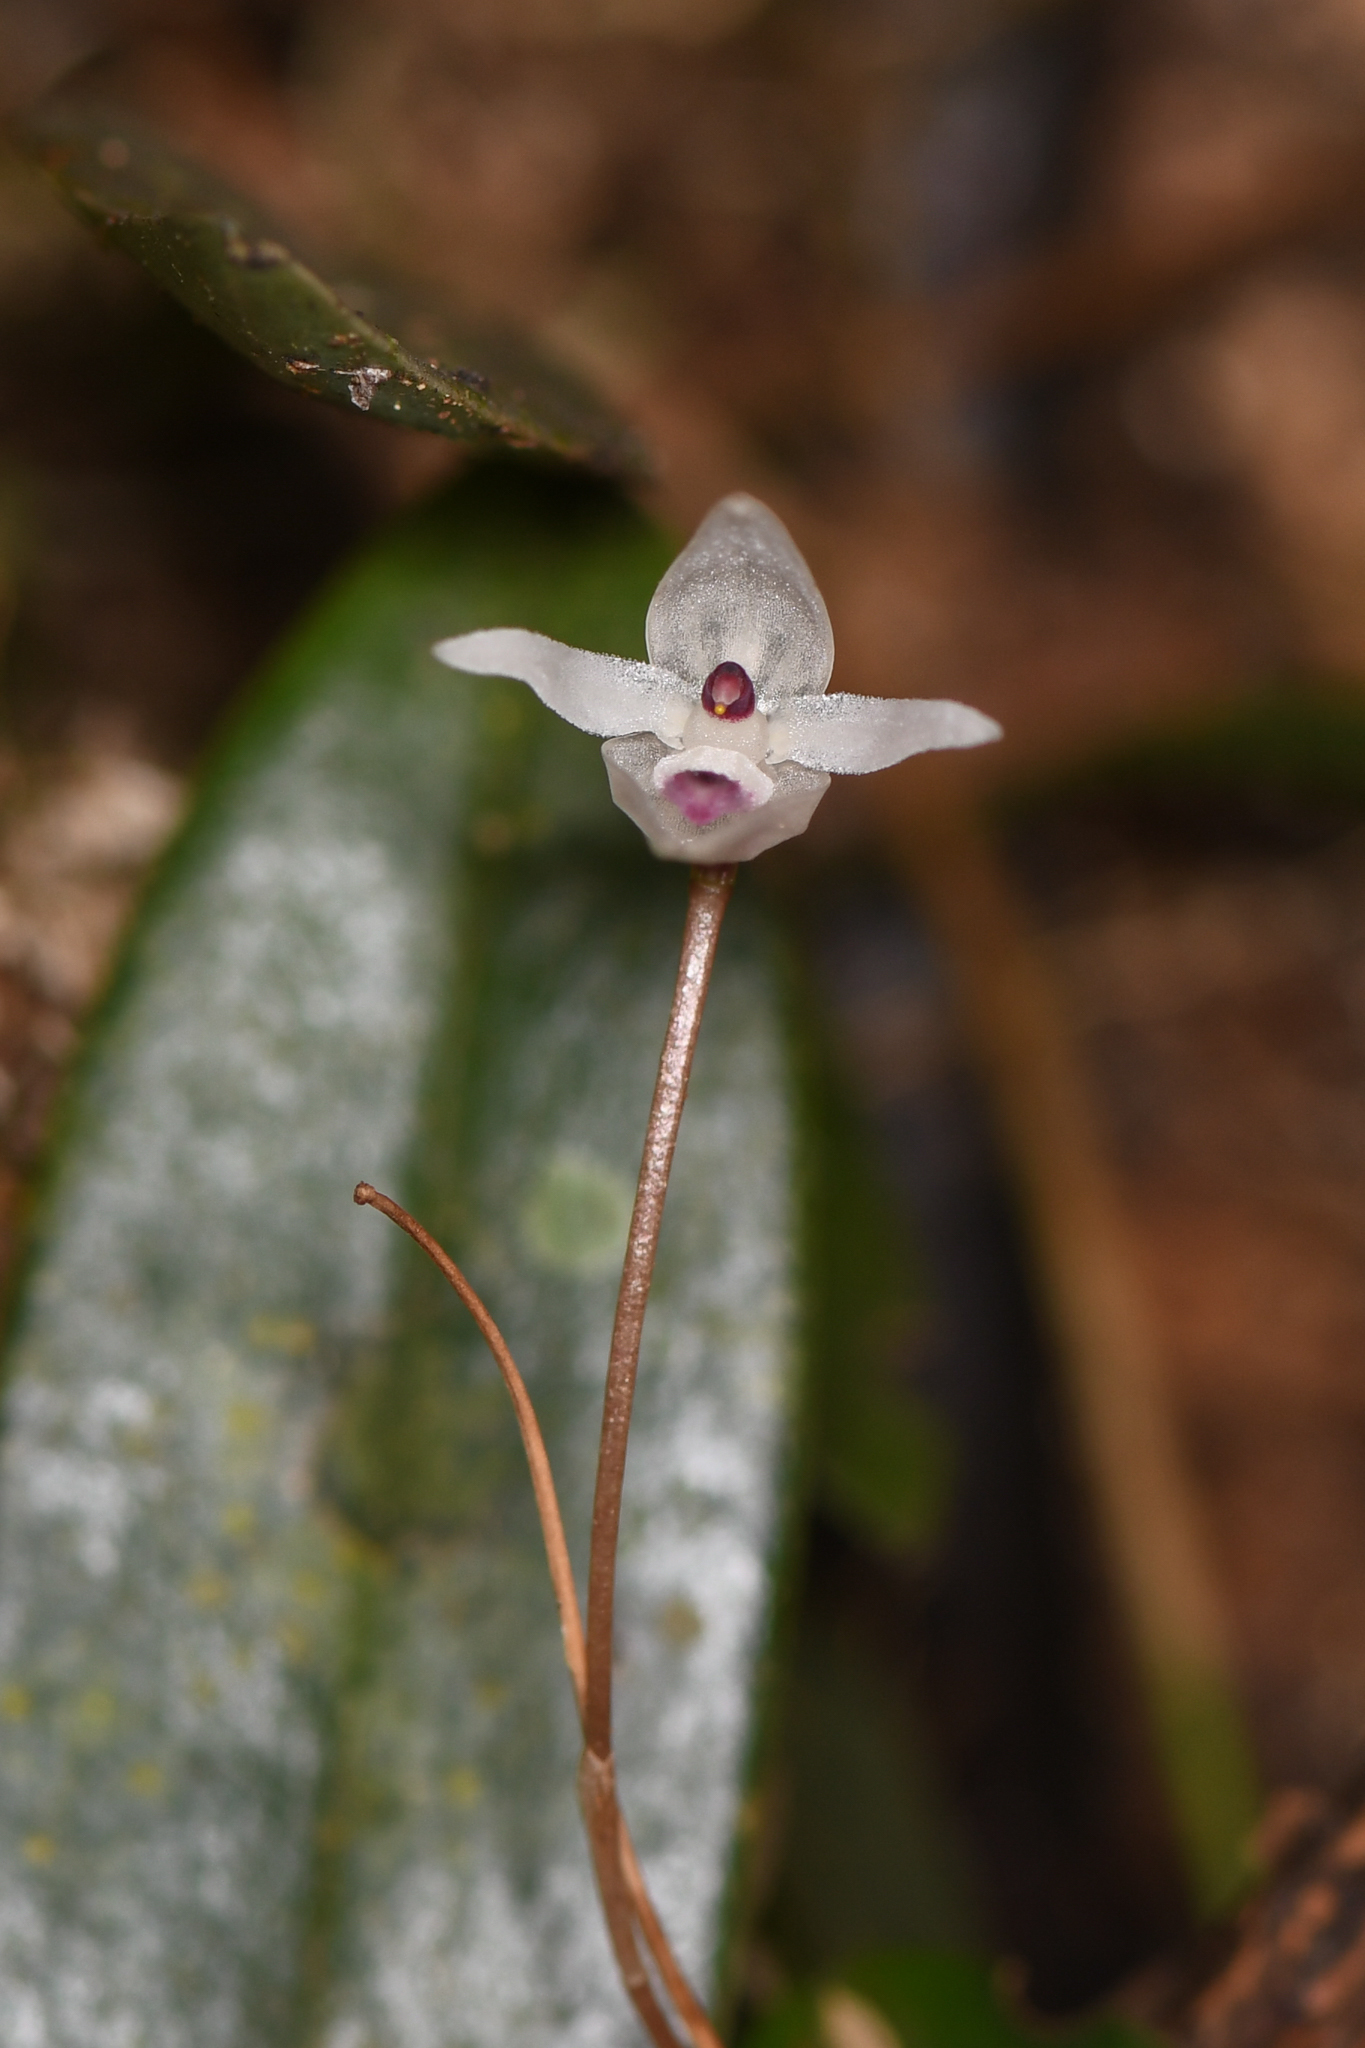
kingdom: Plantae
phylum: Tracheophyta
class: Liliopsida
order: Asparagales
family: Orchidaceae
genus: Pleurothallis
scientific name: Pleurothallis eumecocaulon
